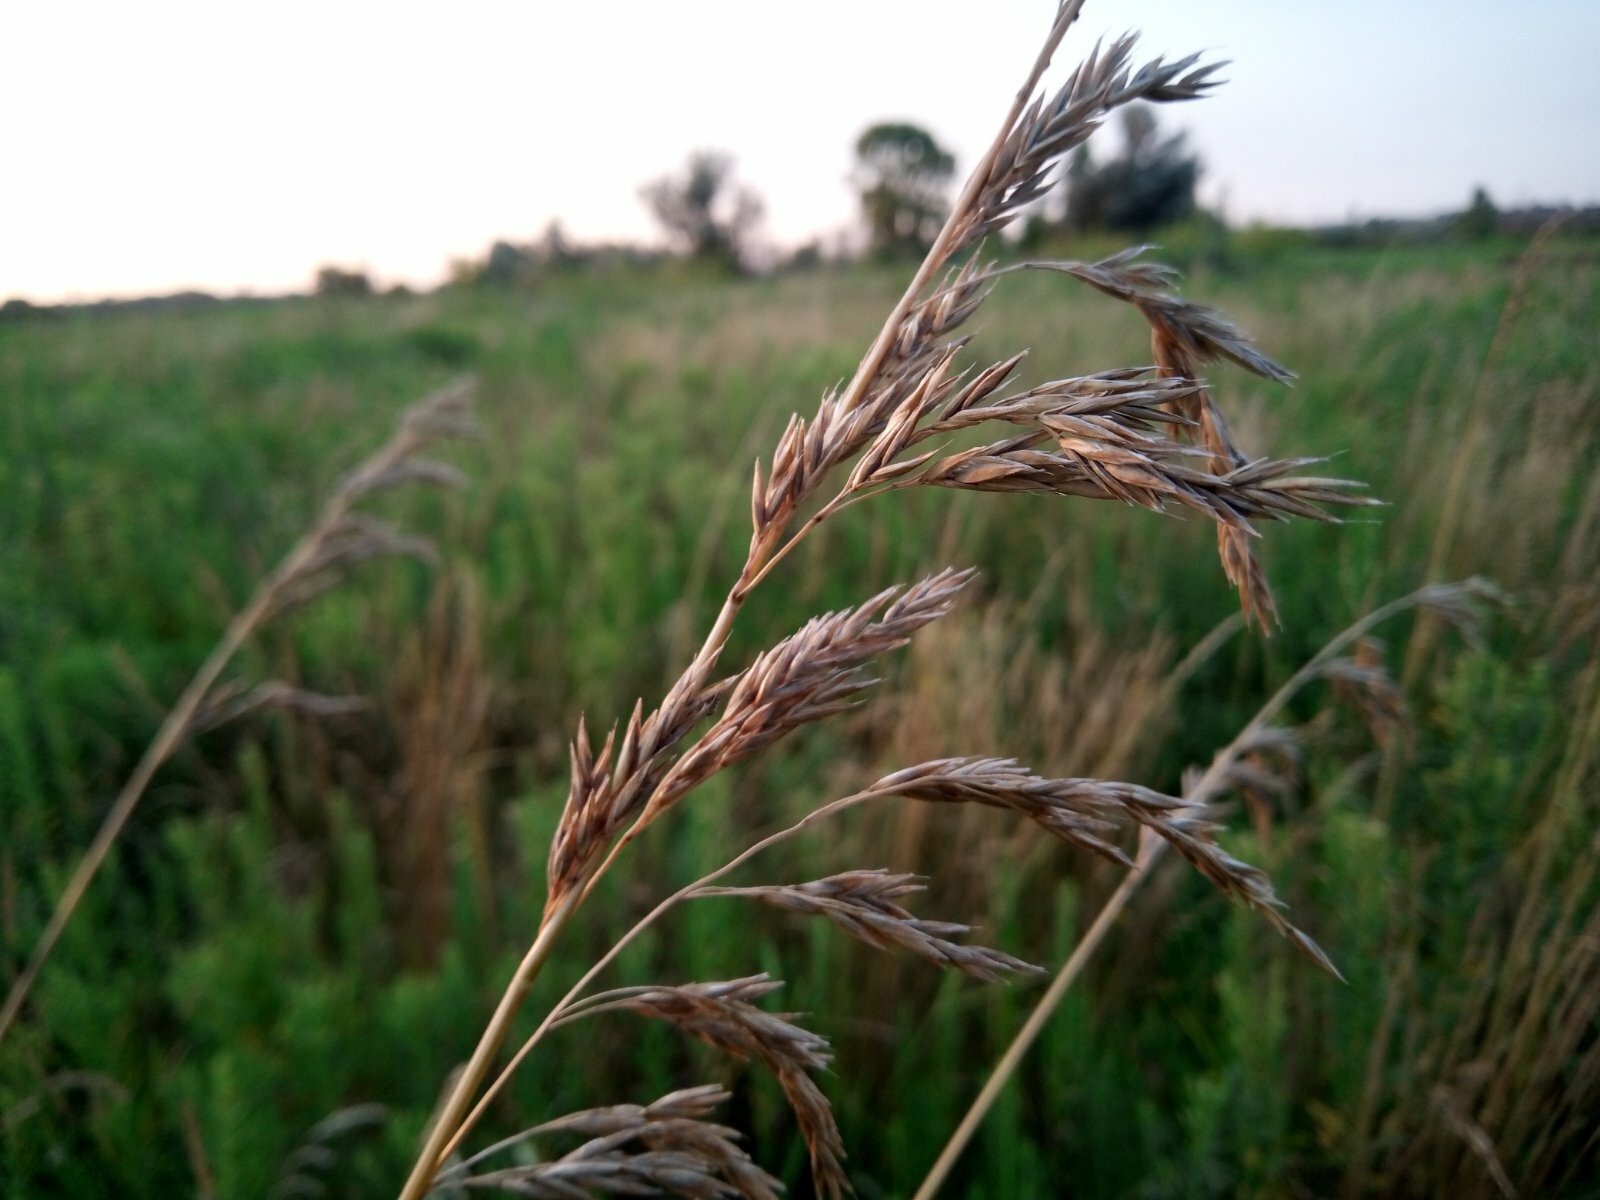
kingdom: Plantae
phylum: Tracheophyta
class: Liliopsida
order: Poales
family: Poaceae
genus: Lolium
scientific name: Lolium arundinaceum
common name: Reed fescue
